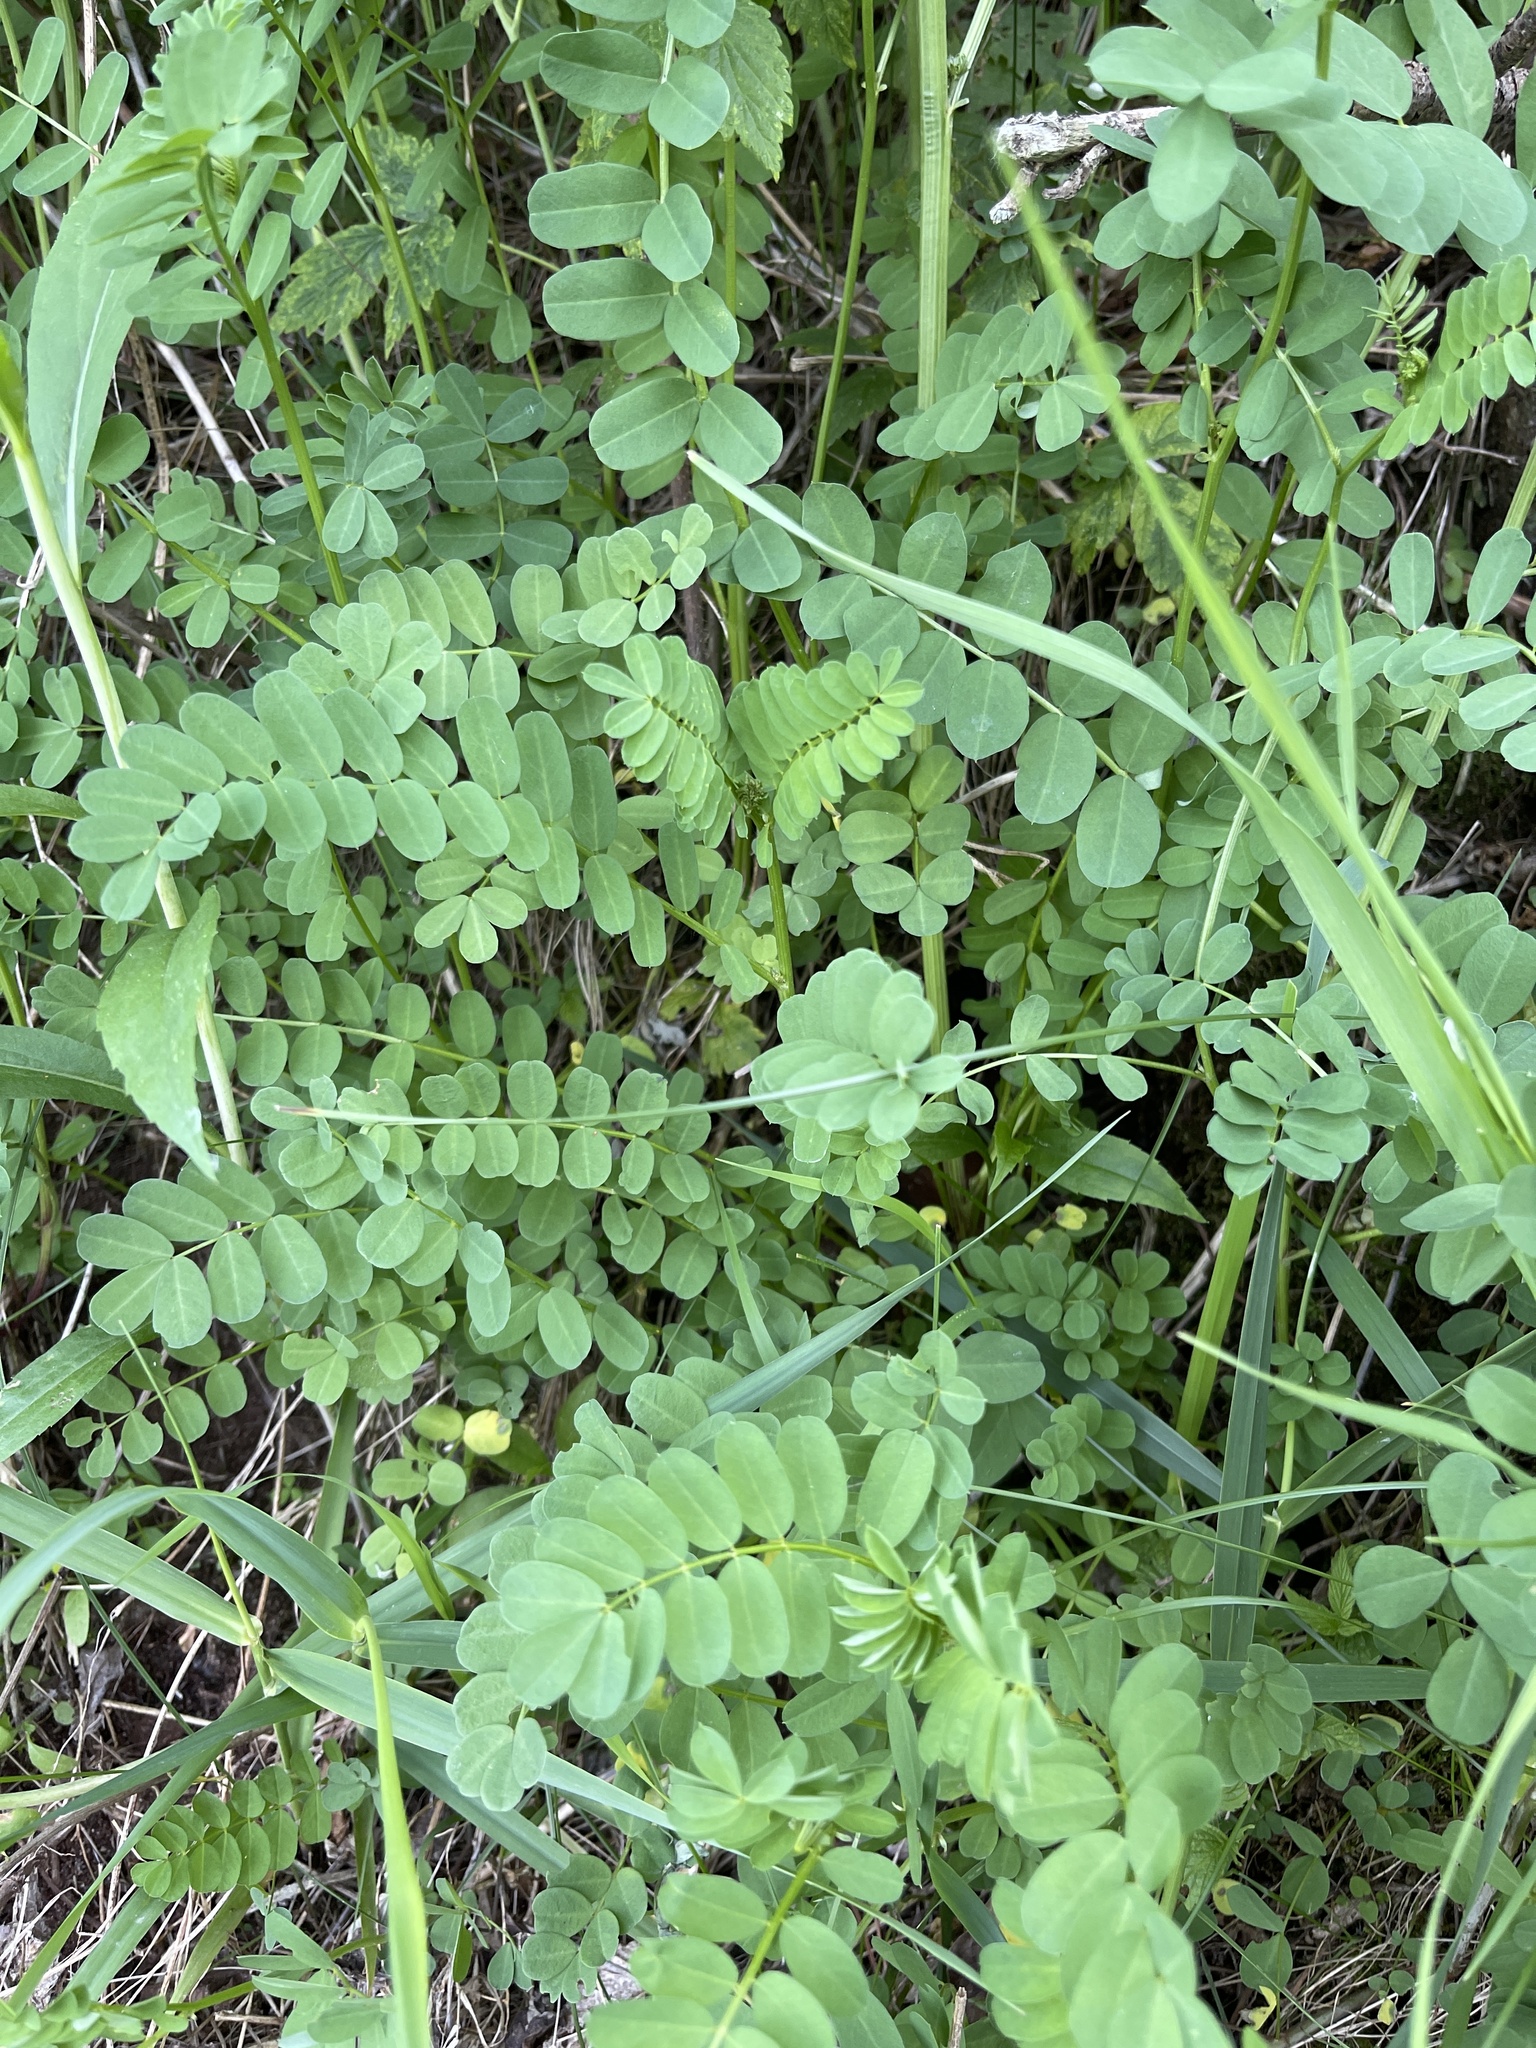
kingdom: Plantae
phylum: Tracheophyta
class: Magnoliopsida
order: Fabales
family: Fabaceae
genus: Coronilla
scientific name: Coronilla varia
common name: Crownvetch
